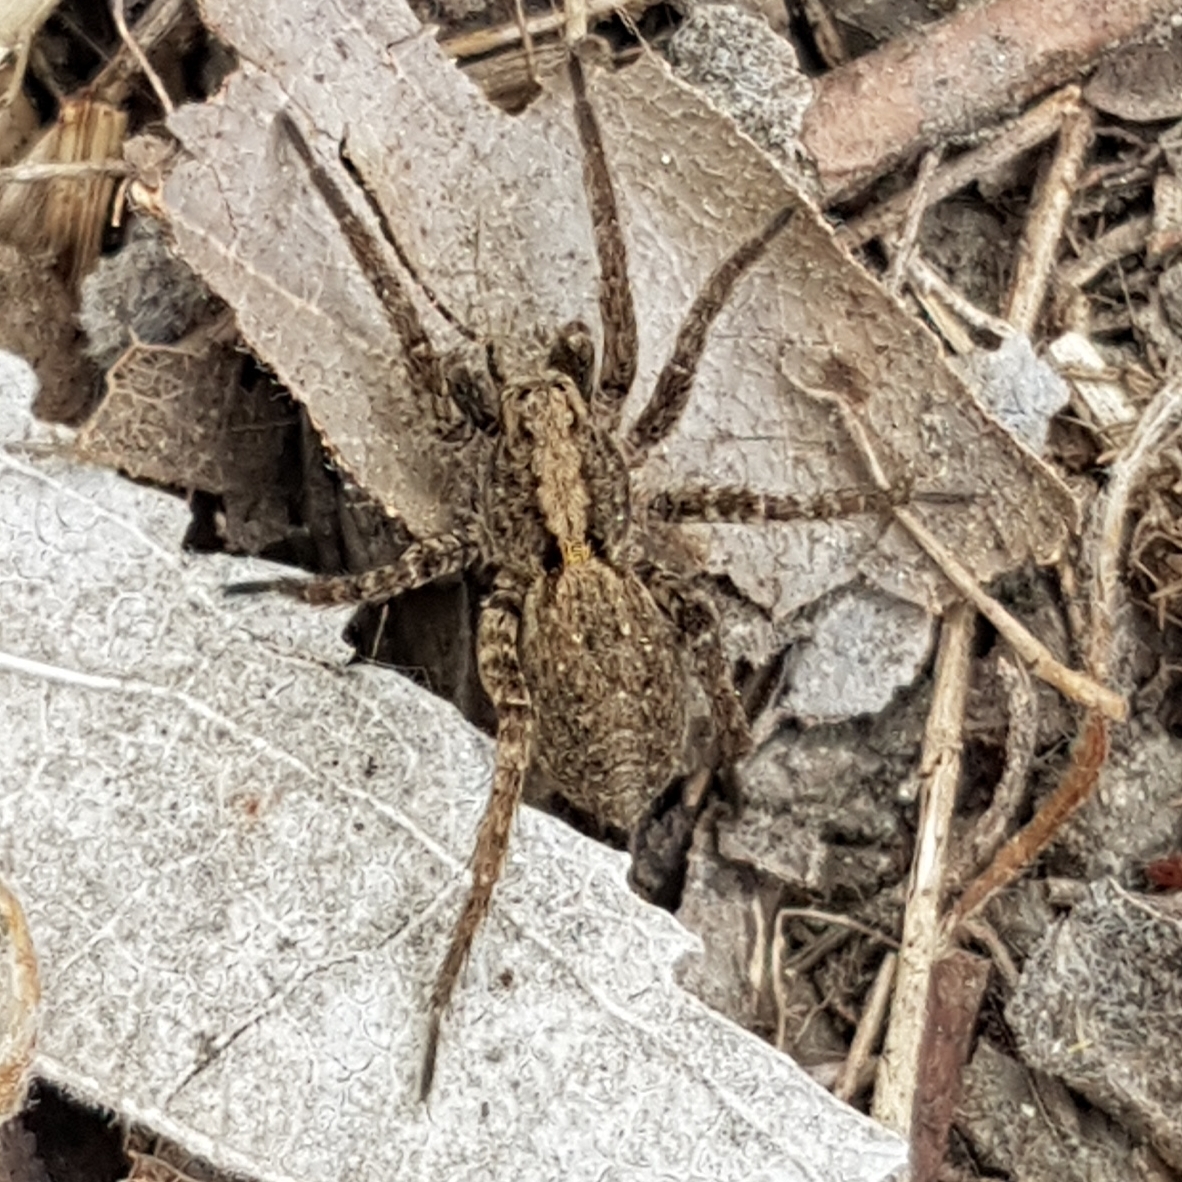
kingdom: Animalia
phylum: Arthropoda
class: Arachnida
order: Araneae
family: Lycosidae
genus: Alopecosa
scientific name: Alopecosa
